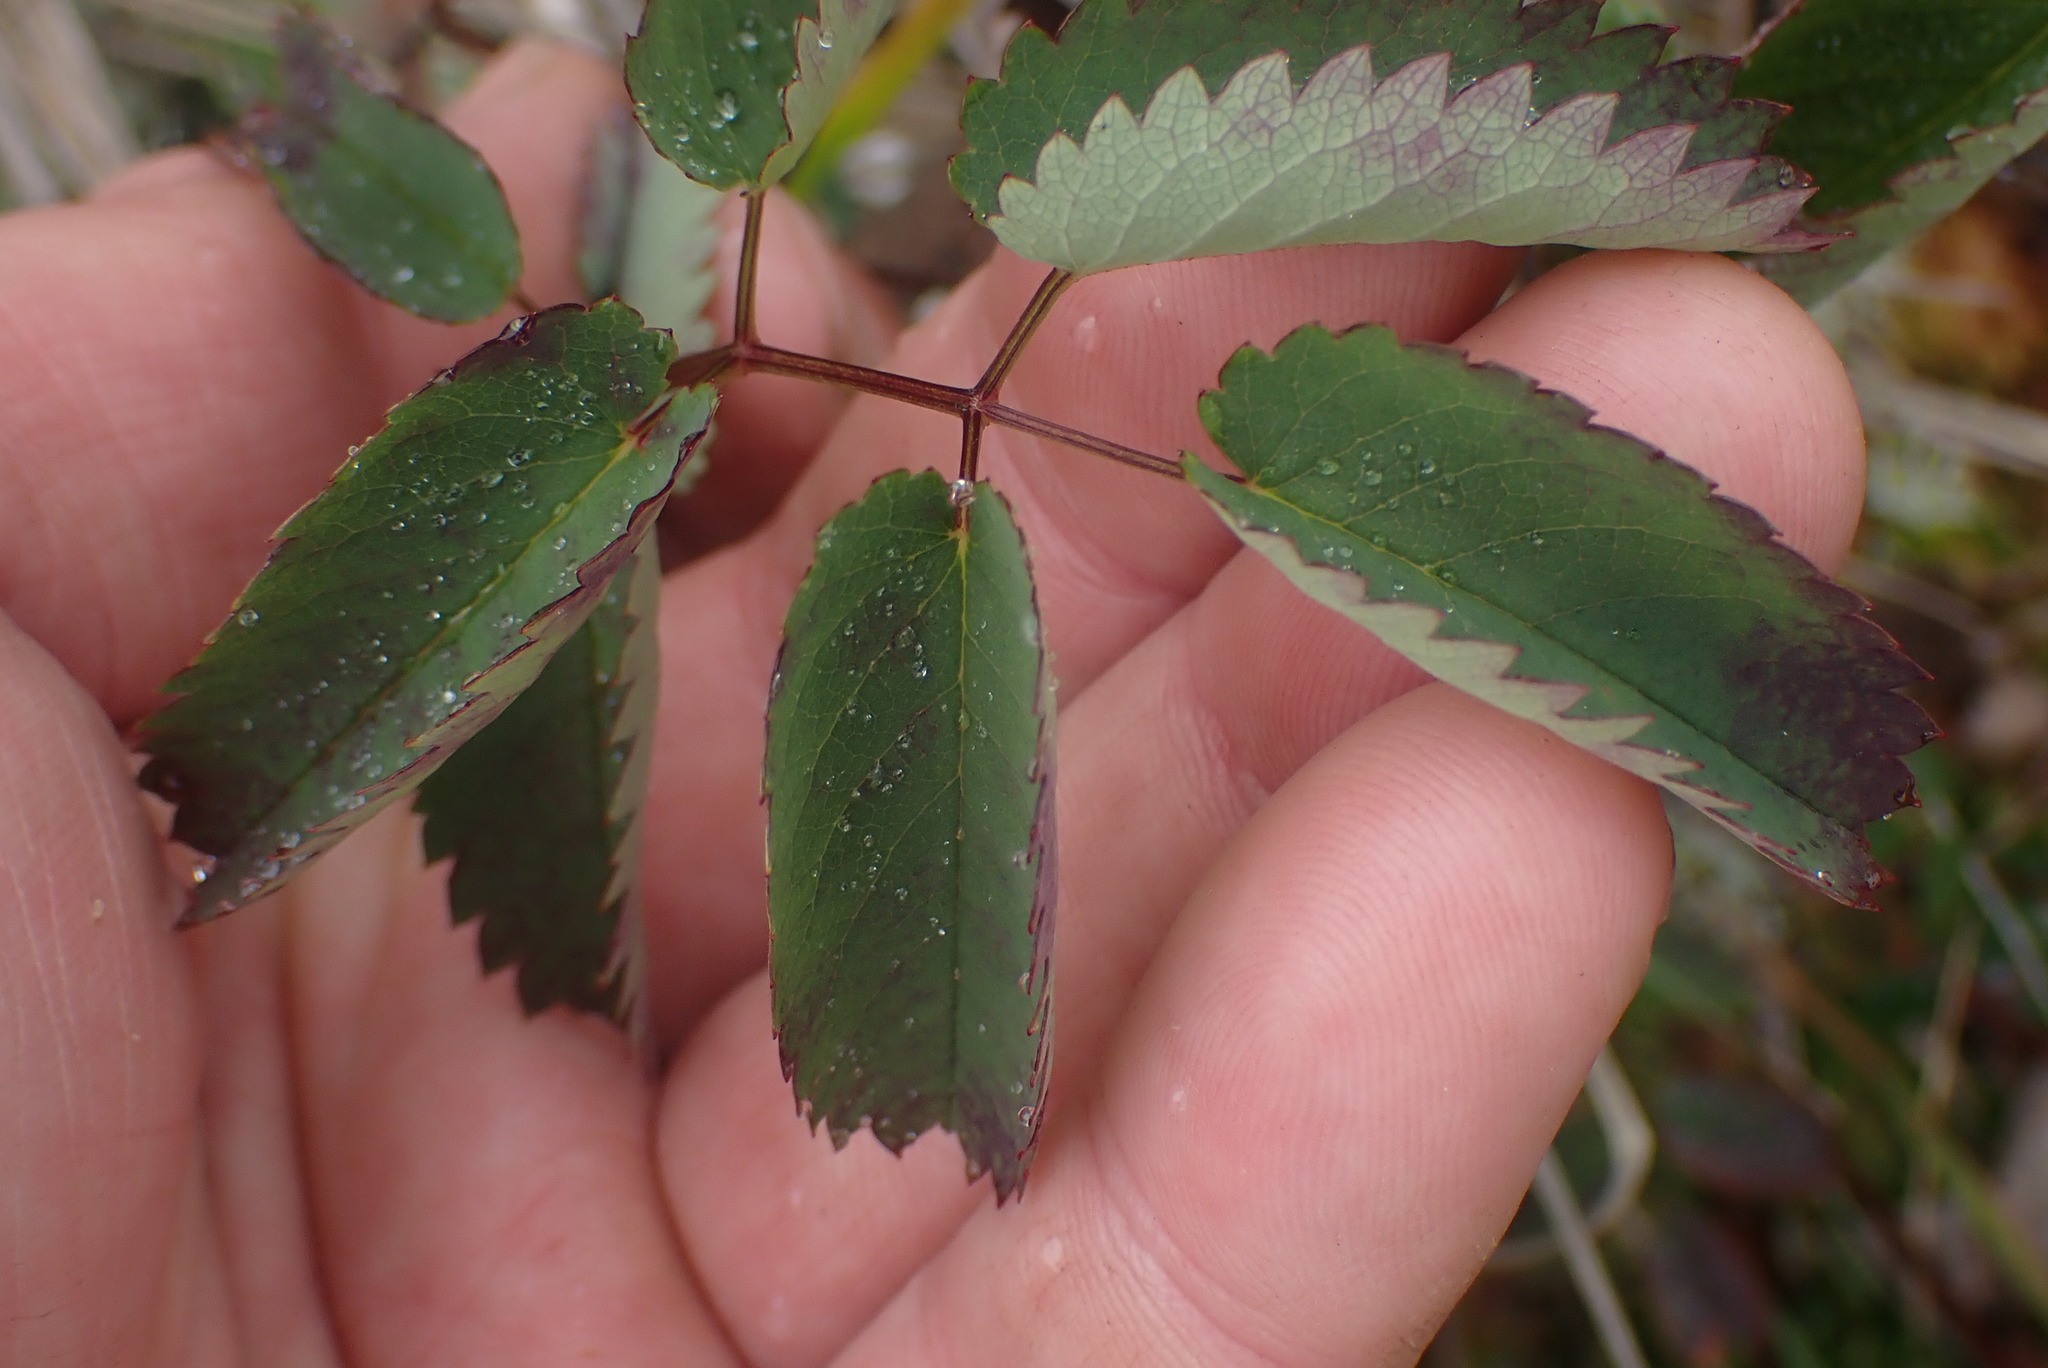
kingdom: Plantae
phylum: Tracheophyta
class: Magnoliopsida
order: Rosales
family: Rosaceae
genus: Sanguisorba
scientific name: Sanguisorba officinalis
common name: Great burnet
